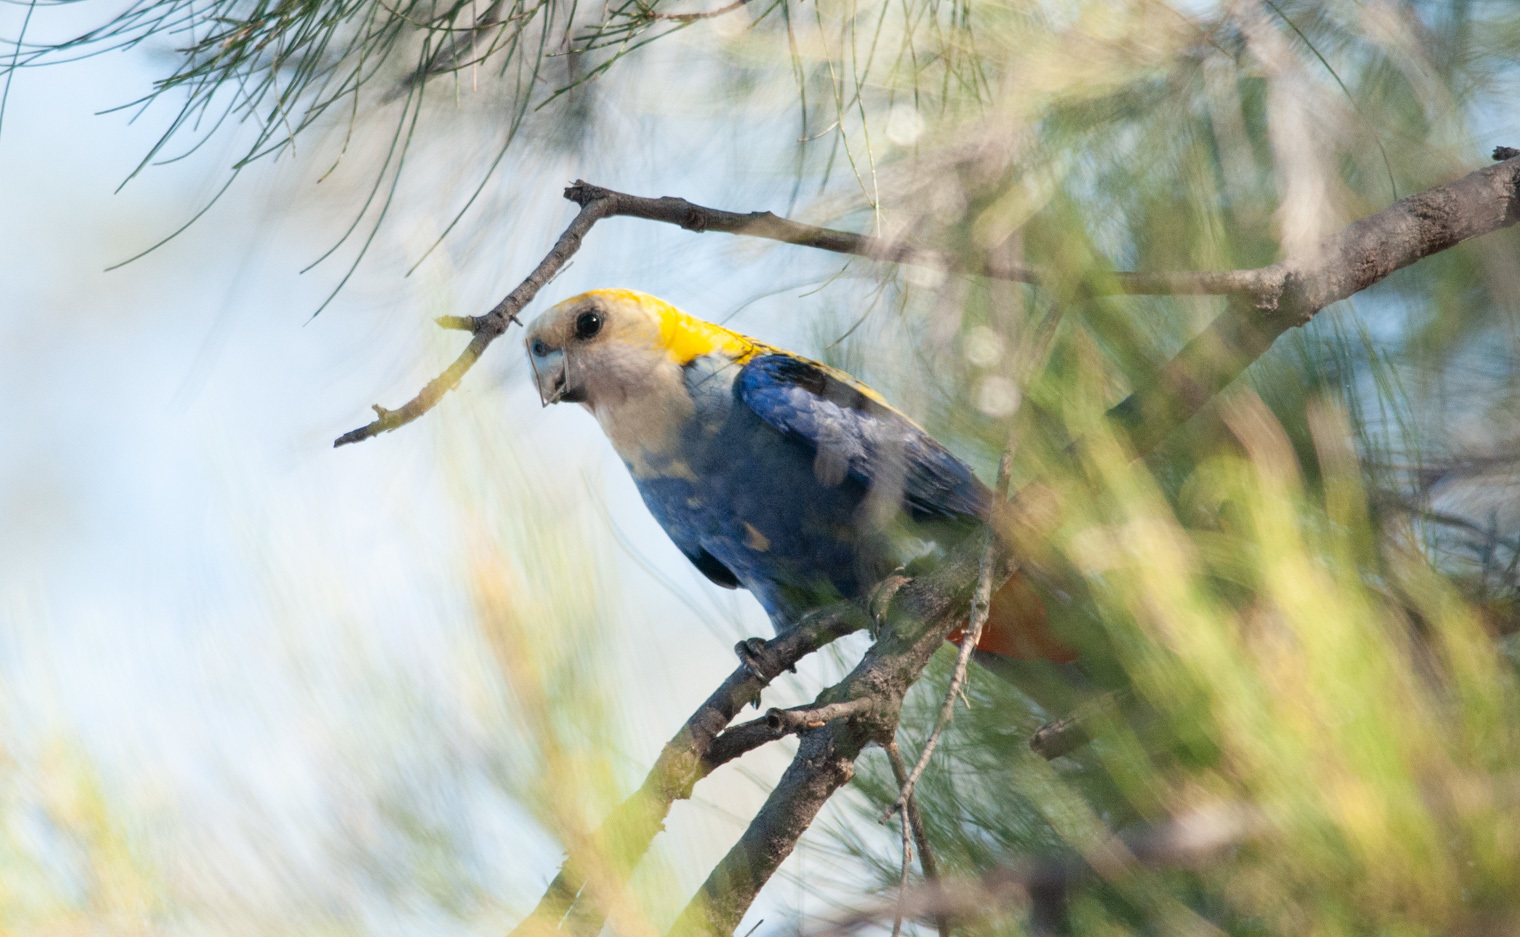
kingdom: Animalia
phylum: Chordata
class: Aves
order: Psittaciformes
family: Psittacidae
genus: Platycercus
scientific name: Platycercus adscitus
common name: Pale-headed rosella
